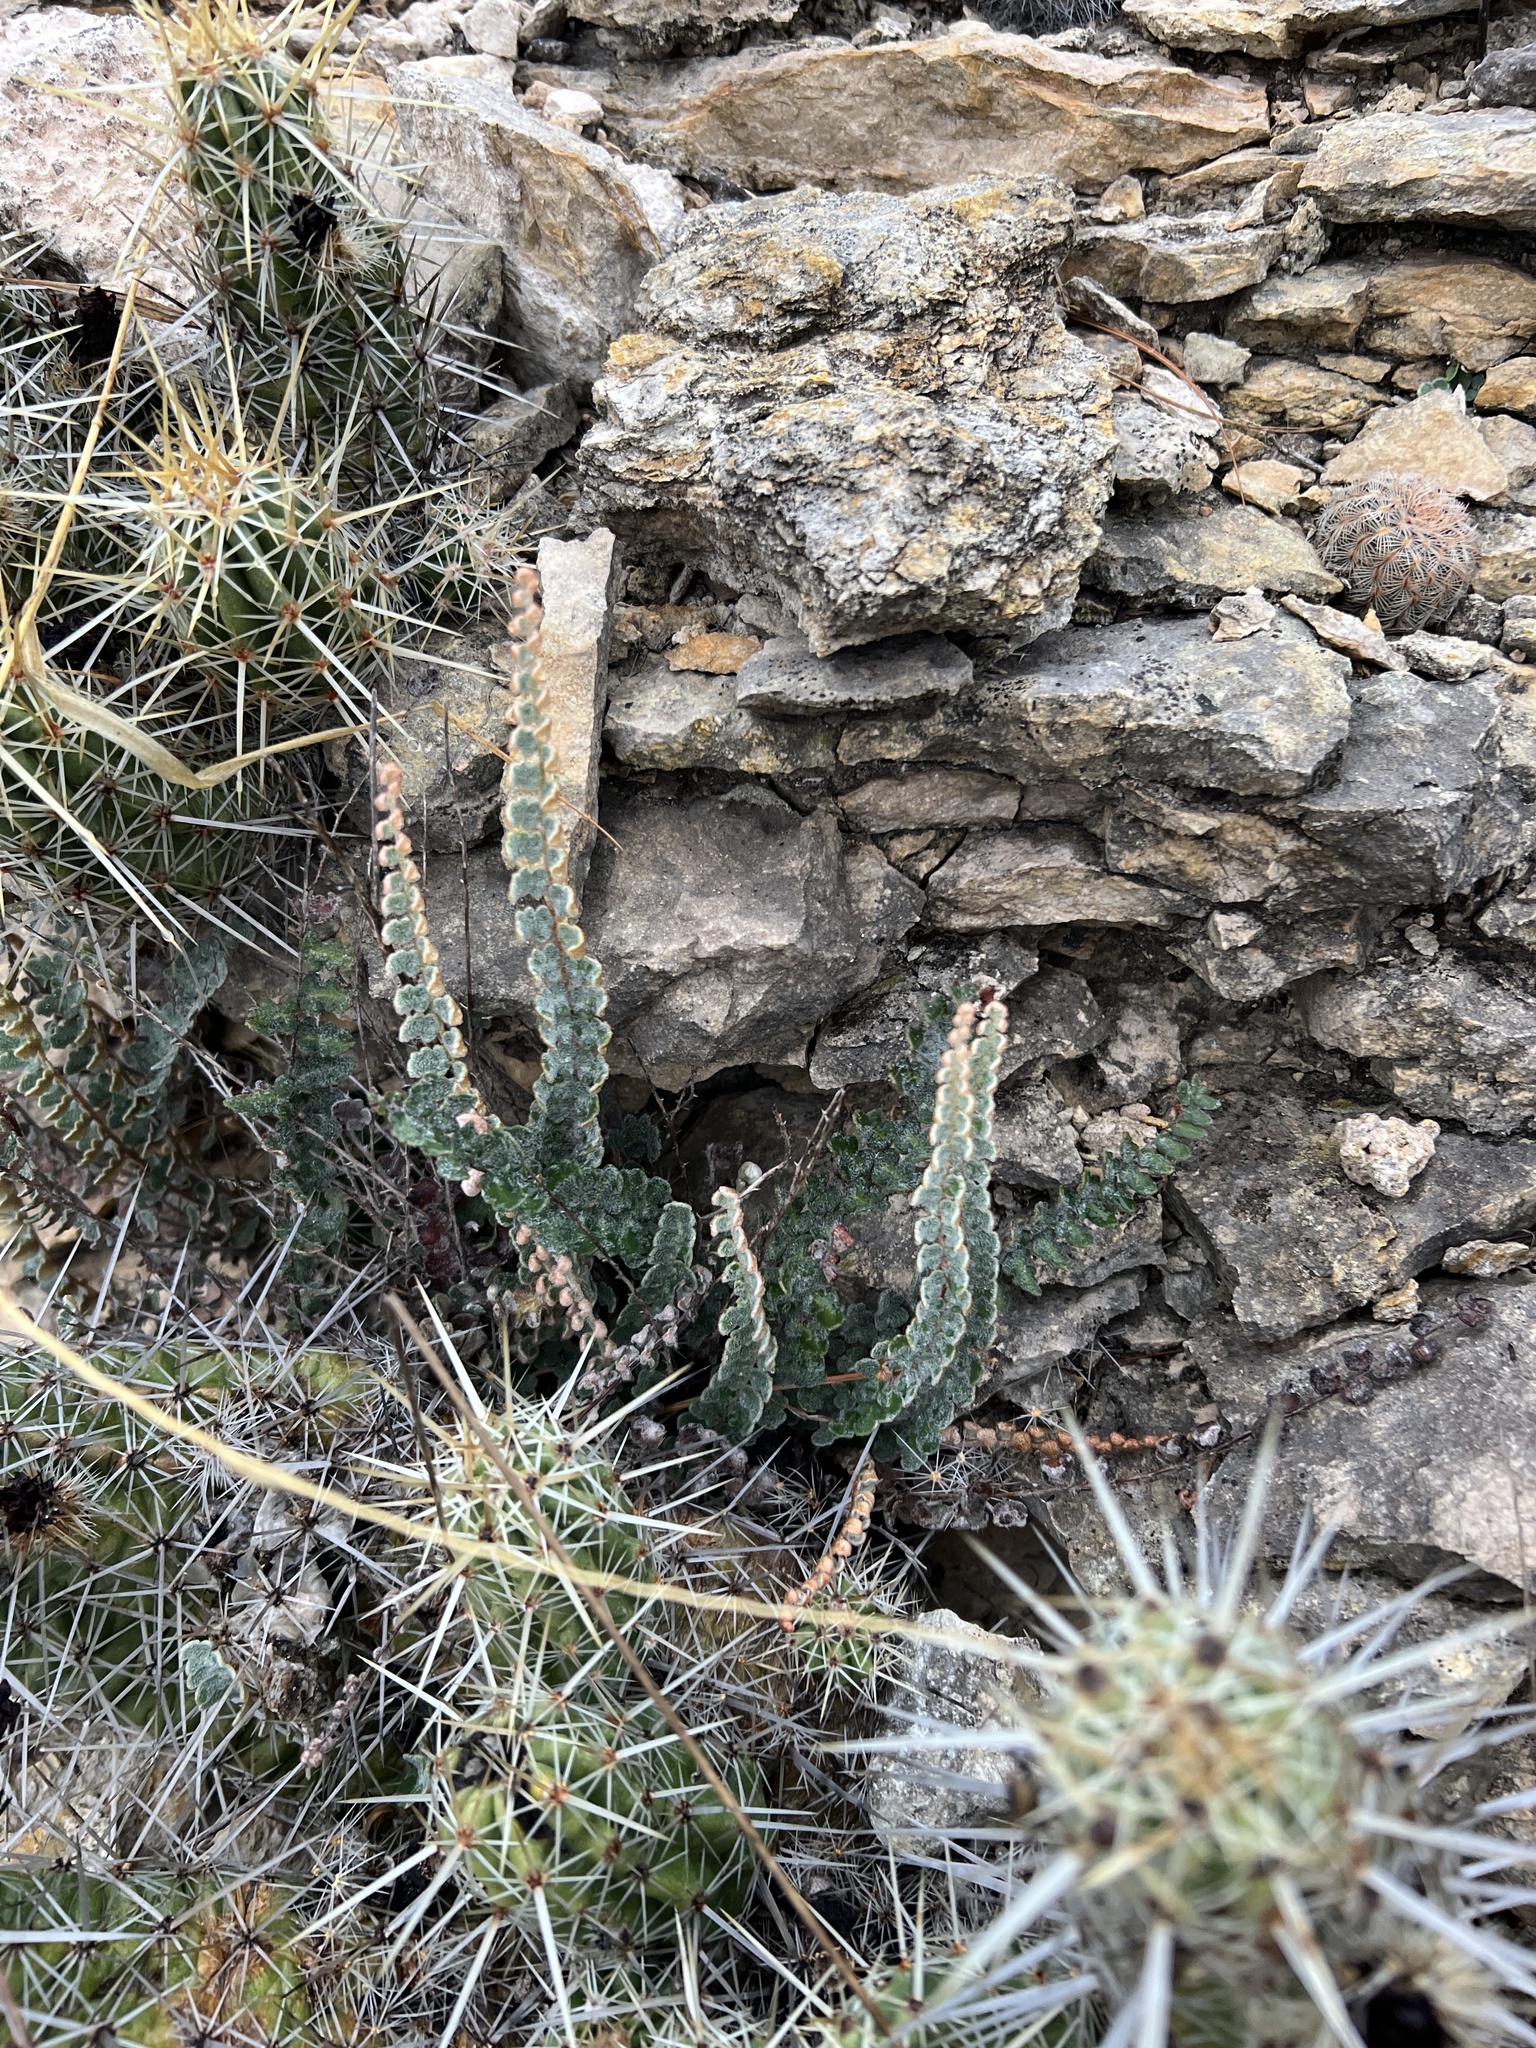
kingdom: Plantae
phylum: Tracheophyta
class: Polypodiopsida
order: Polypodiales
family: Pteridaceae
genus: Astrolepis
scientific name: Astrolepis integerrima
